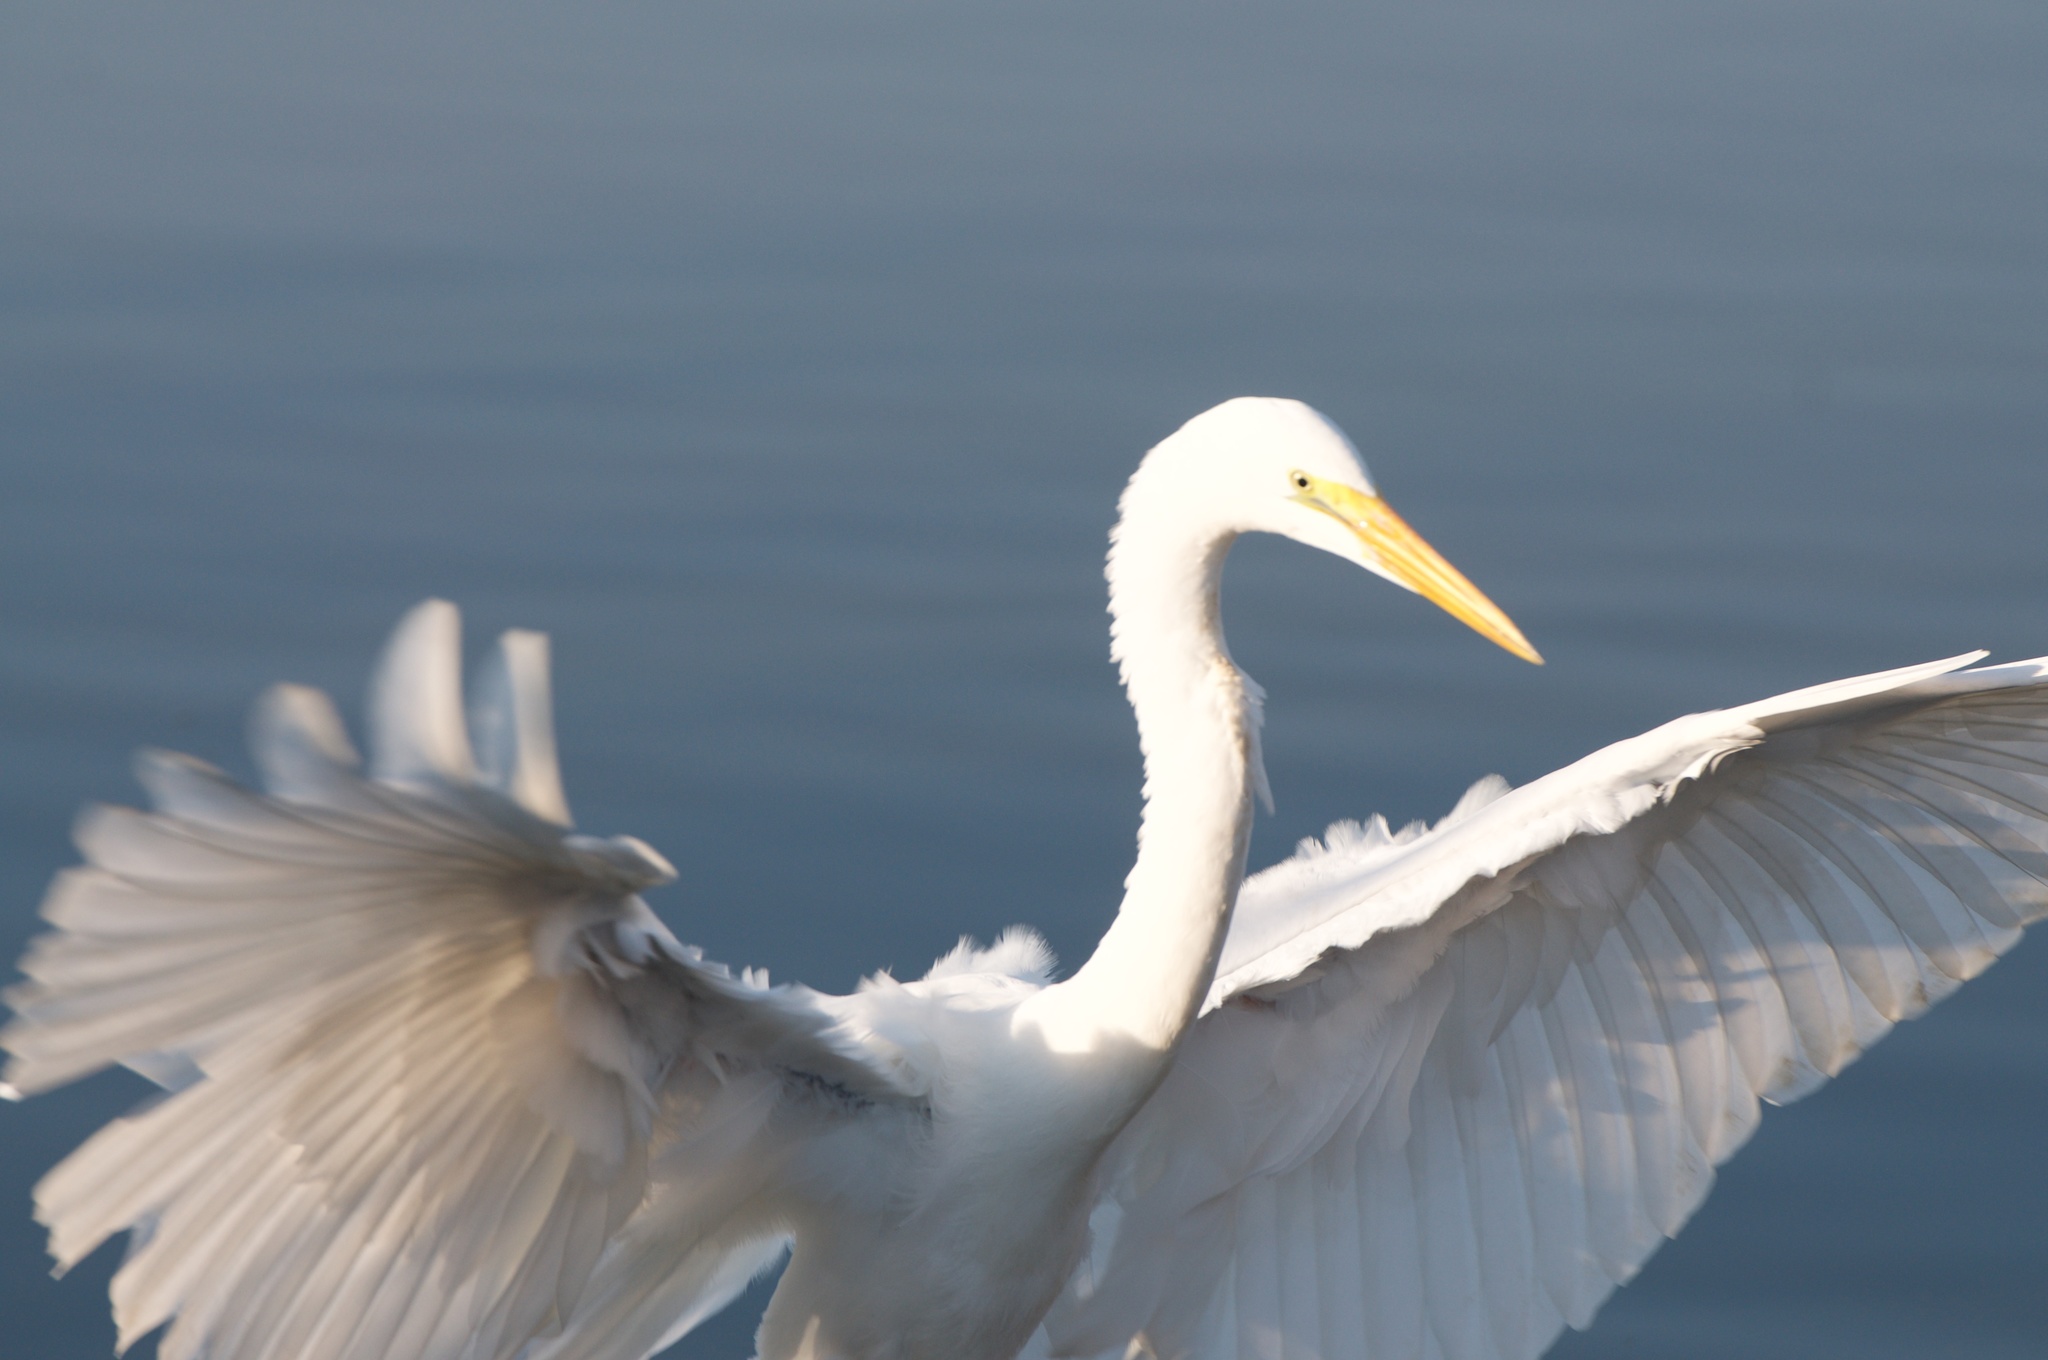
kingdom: Animalia
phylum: Chordata
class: Aves
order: Pelecaniformes
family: Ardeidae
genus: Ardea
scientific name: Ardea alba
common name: Great egret
